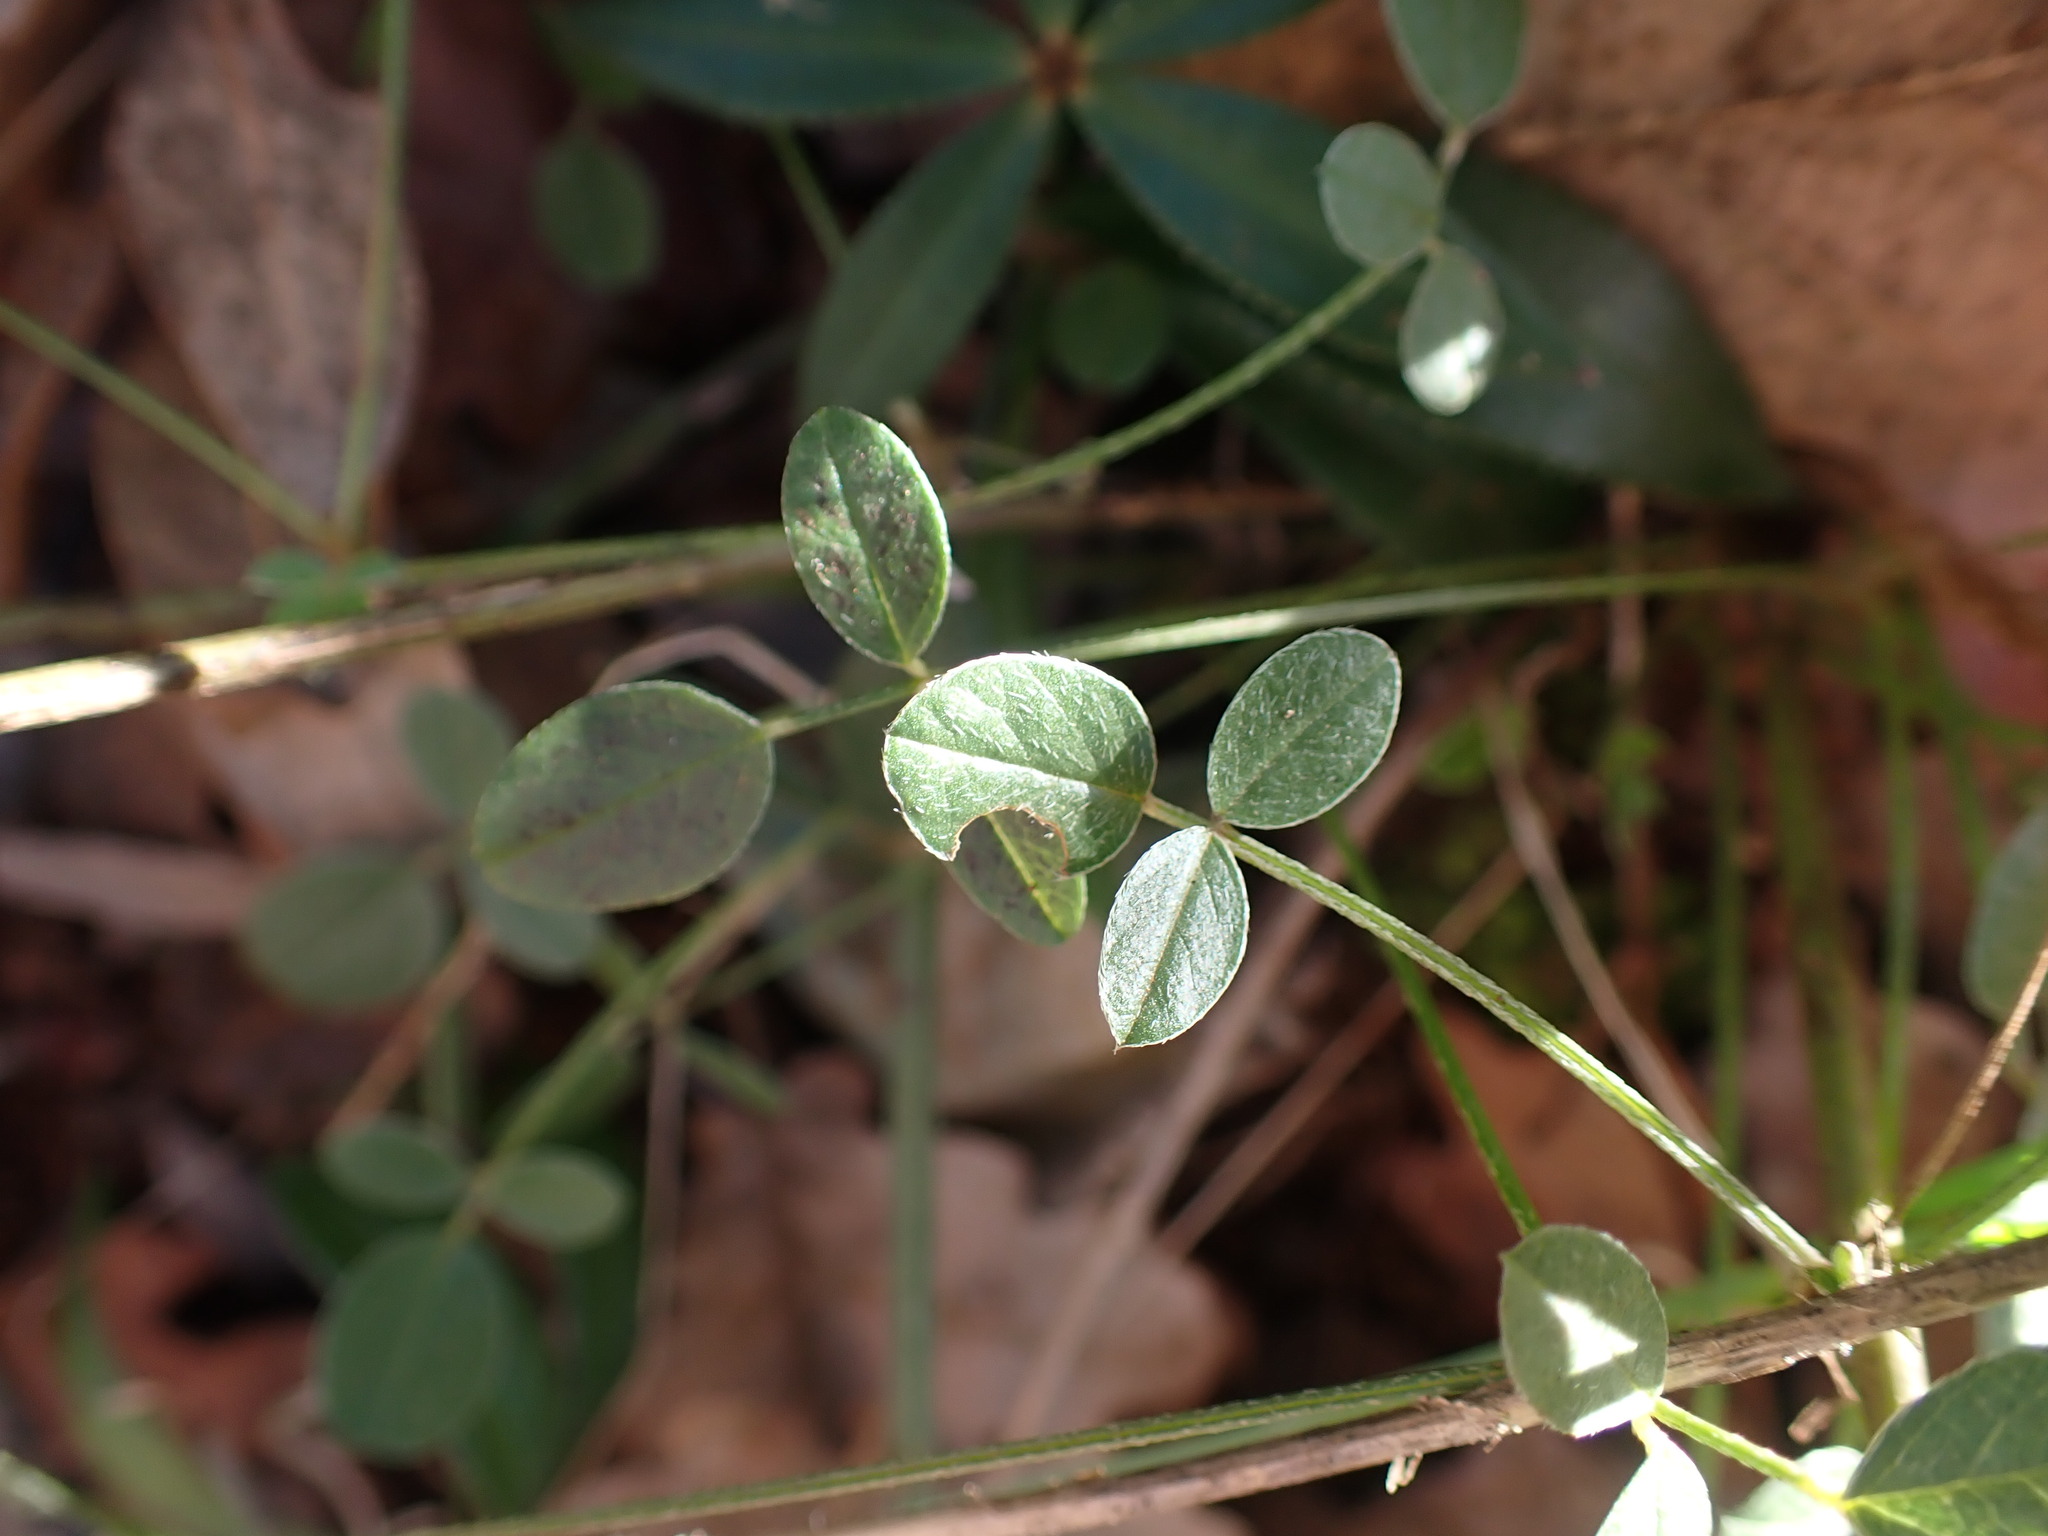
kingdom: Plantae
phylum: Tracheophyta
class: Magnoliopsida
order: Fabales
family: Fabaceae
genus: Bituminaria
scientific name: Bituminaria bituminosa
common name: Arabian pea
